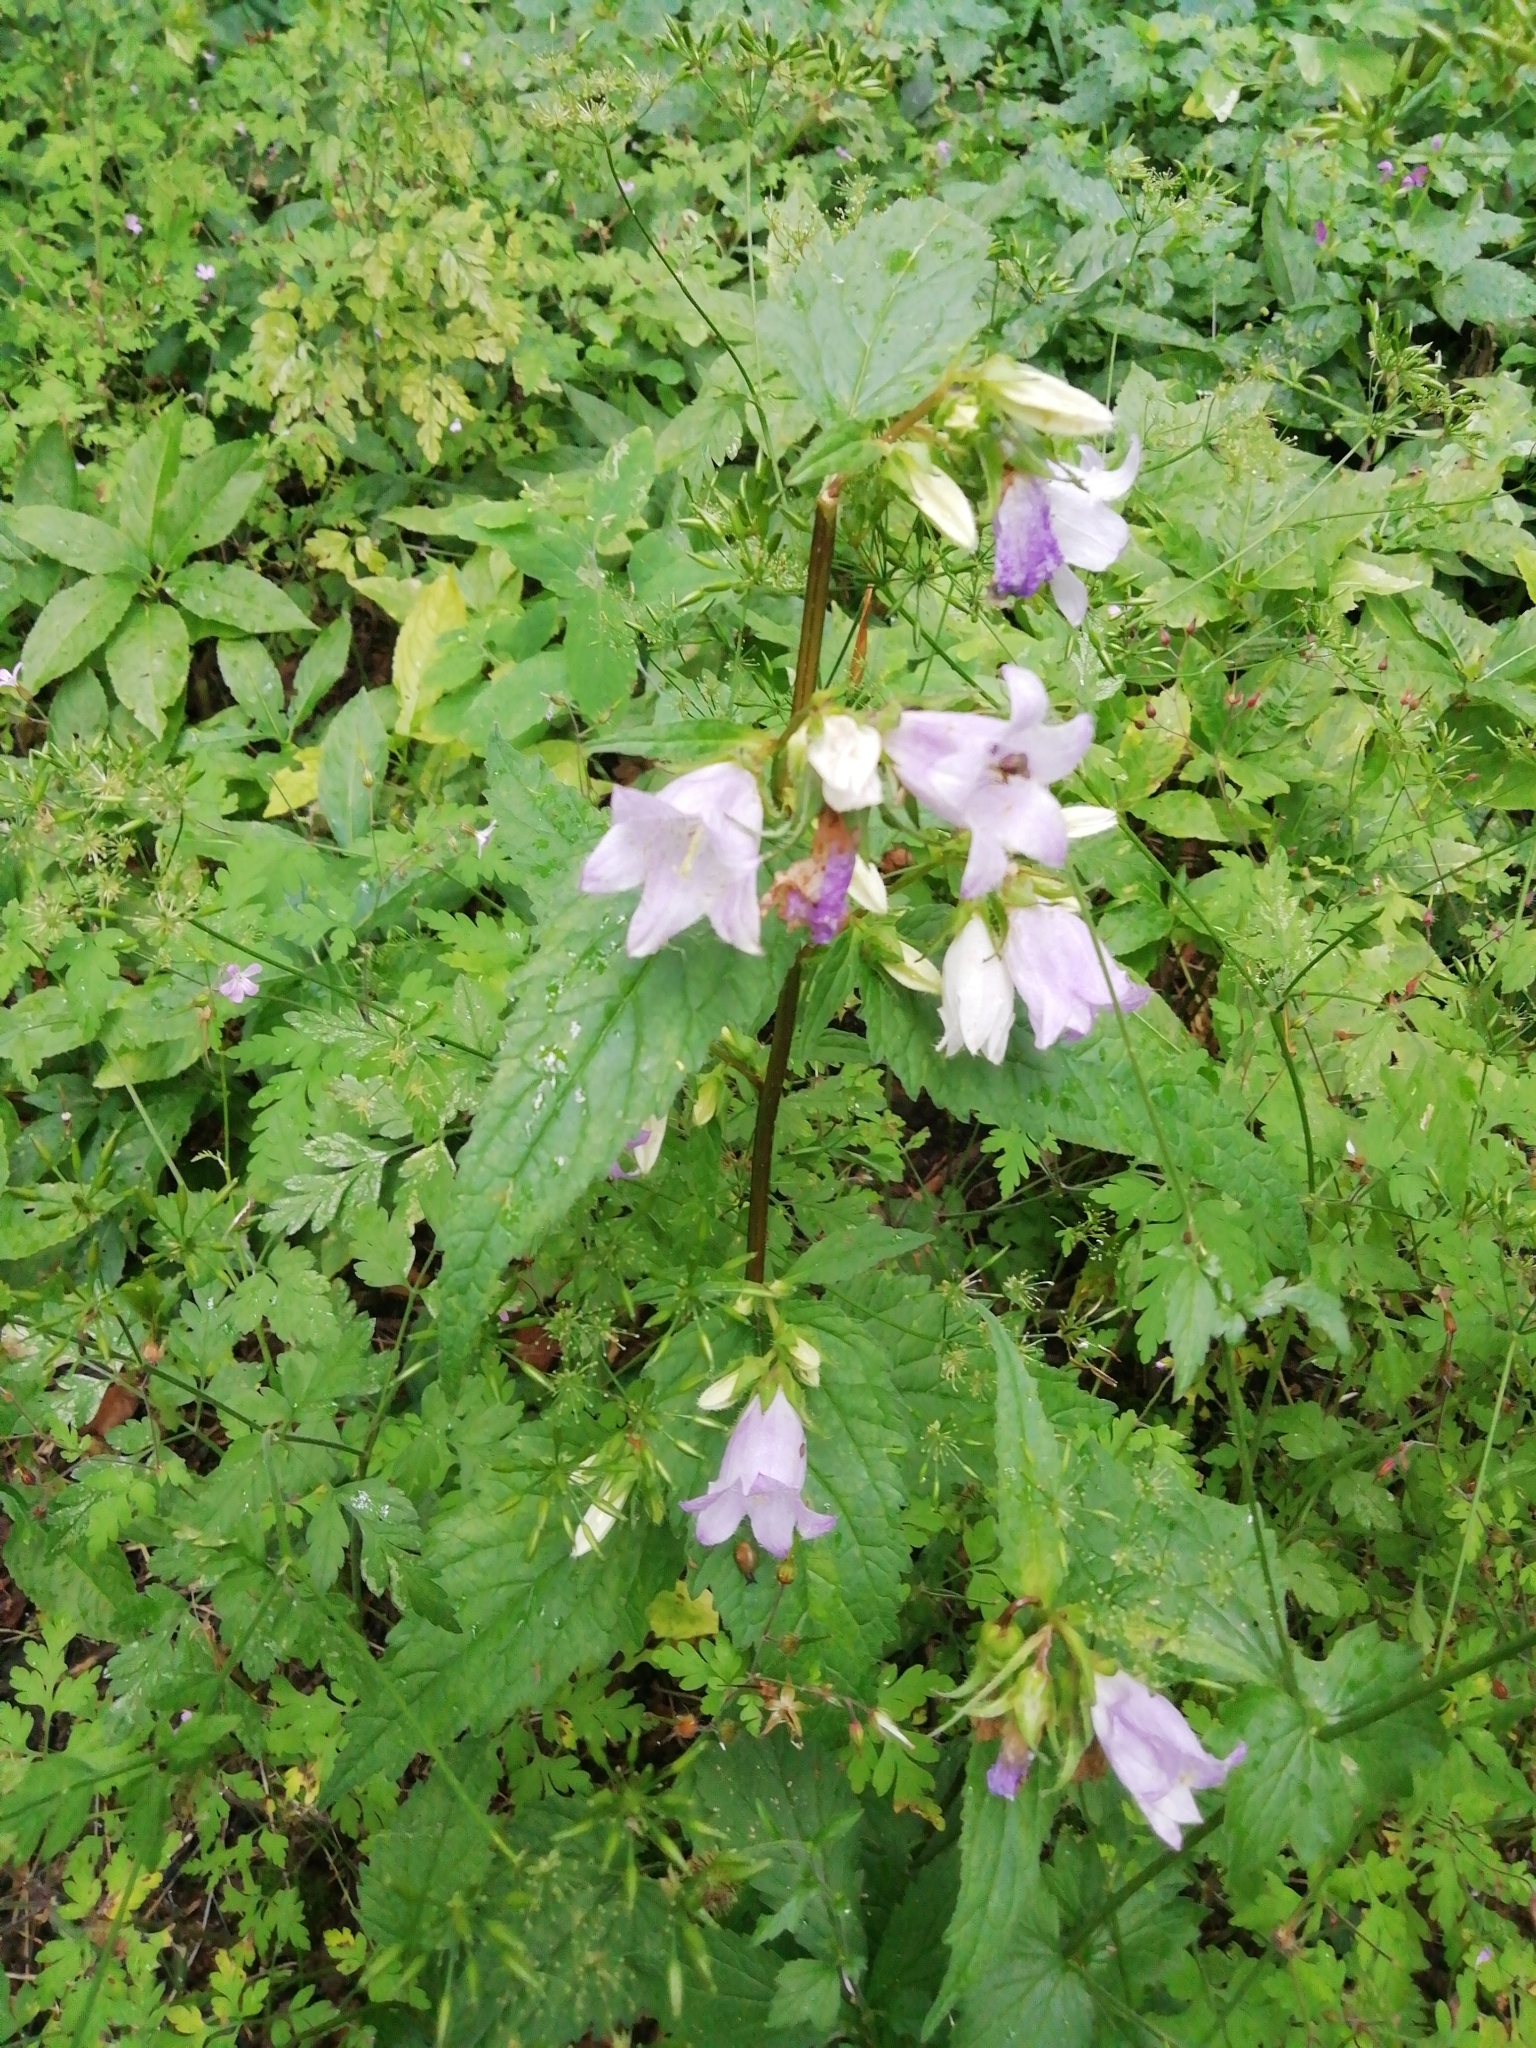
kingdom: Plantae
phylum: Tracheophyta
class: Magnoliopsida
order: Asterales
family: Campanulaceae
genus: Campanula
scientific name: Campanula trachelium
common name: Nettle-leaved bellflower
